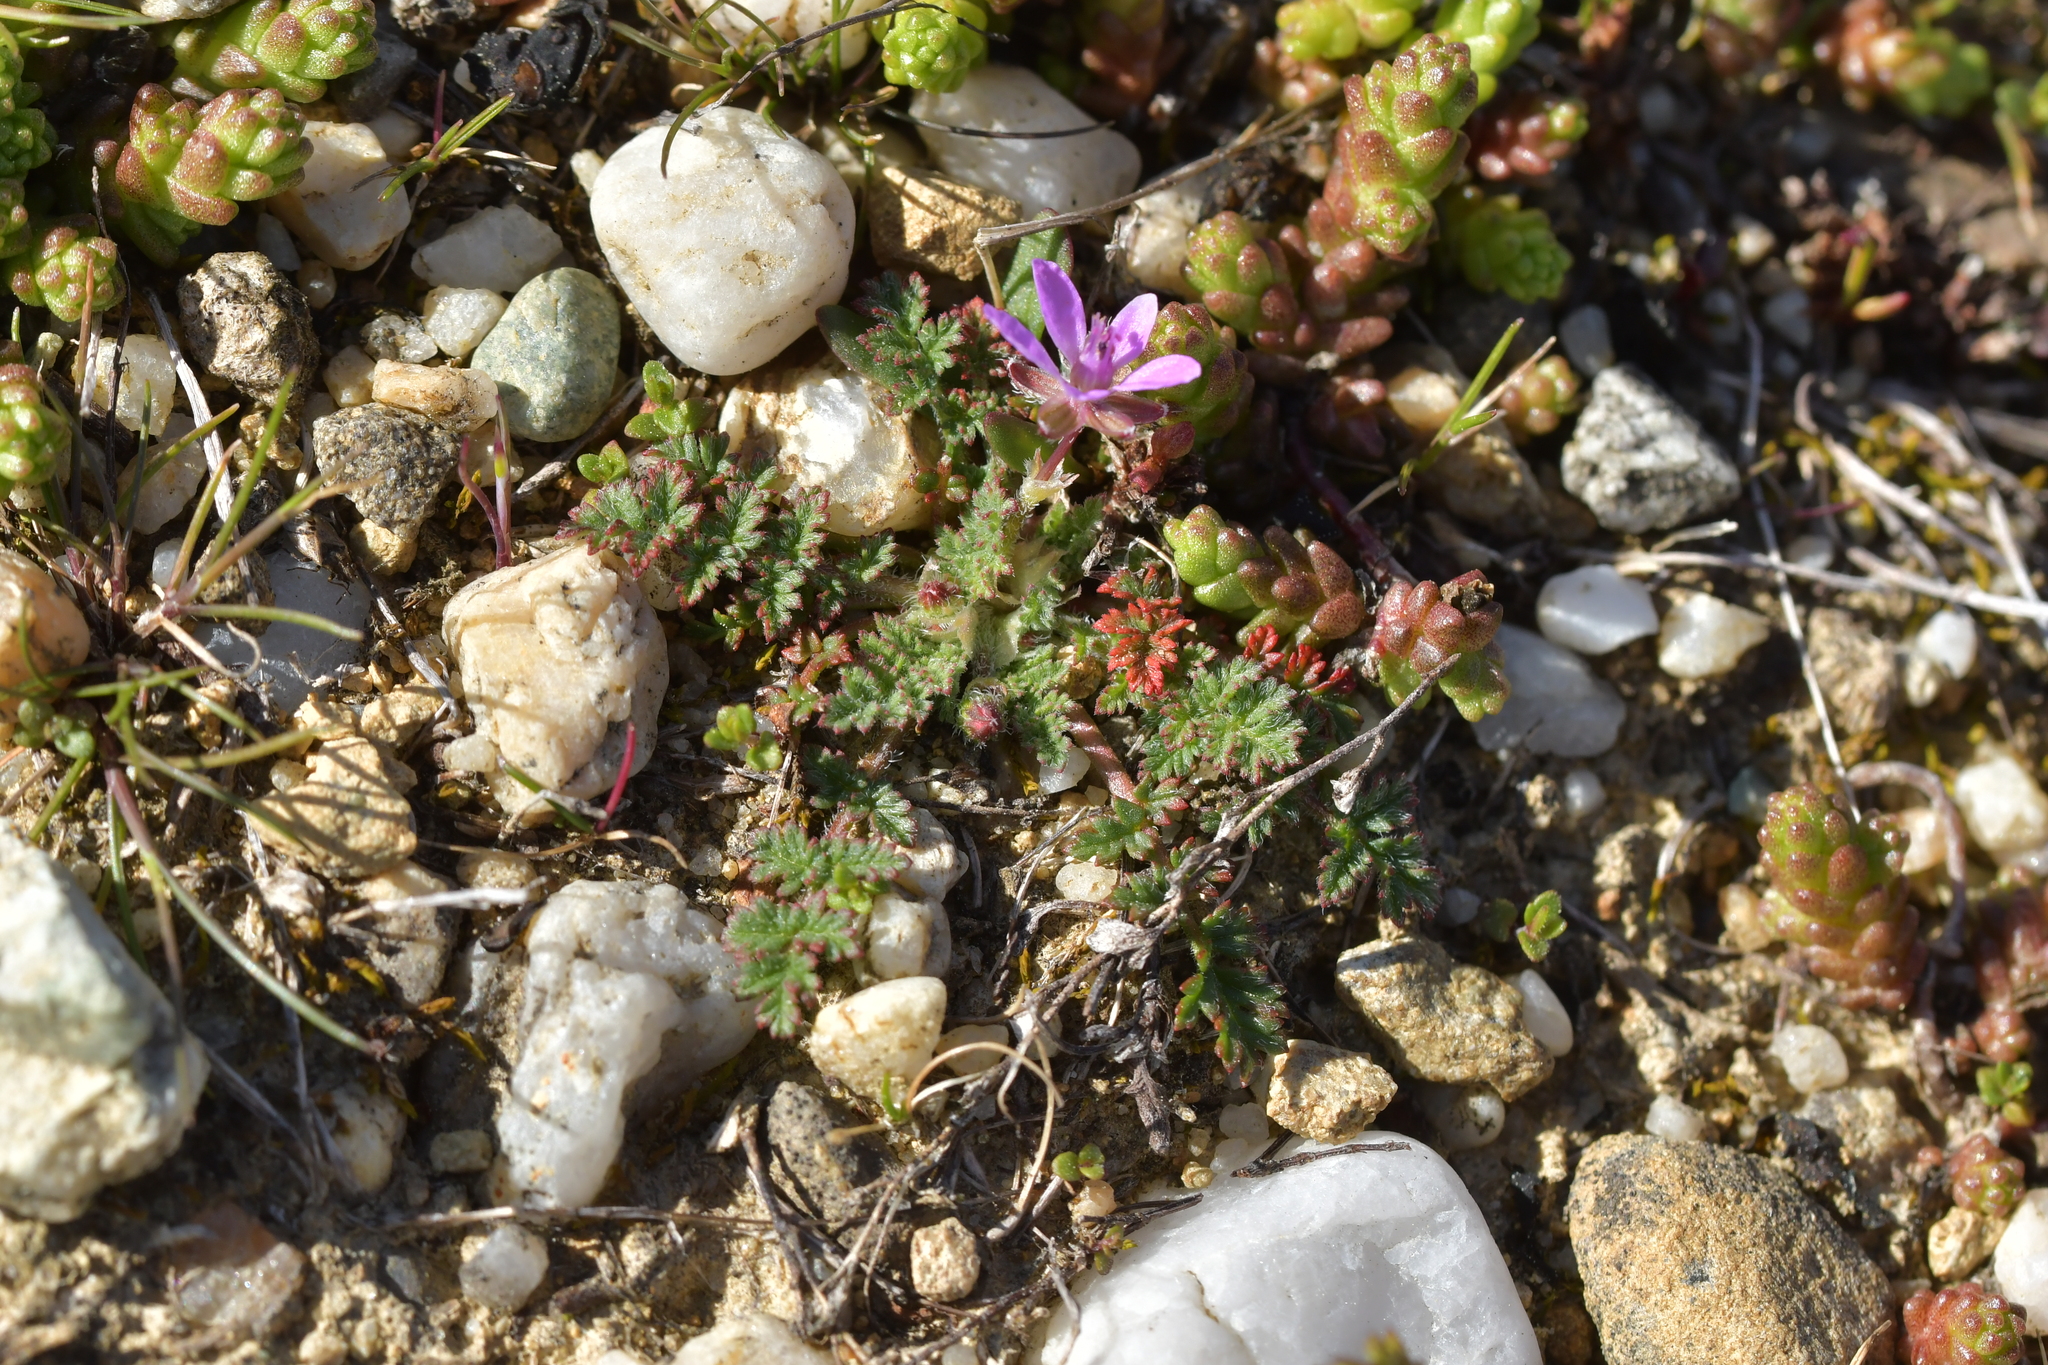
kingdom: Plantae
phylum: Tracheophyta
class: Magnoliopsida
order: Geraniales
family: Geraniaceae
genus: Erodium
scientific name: Erodium cicutarium
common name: Common stork's-bill
